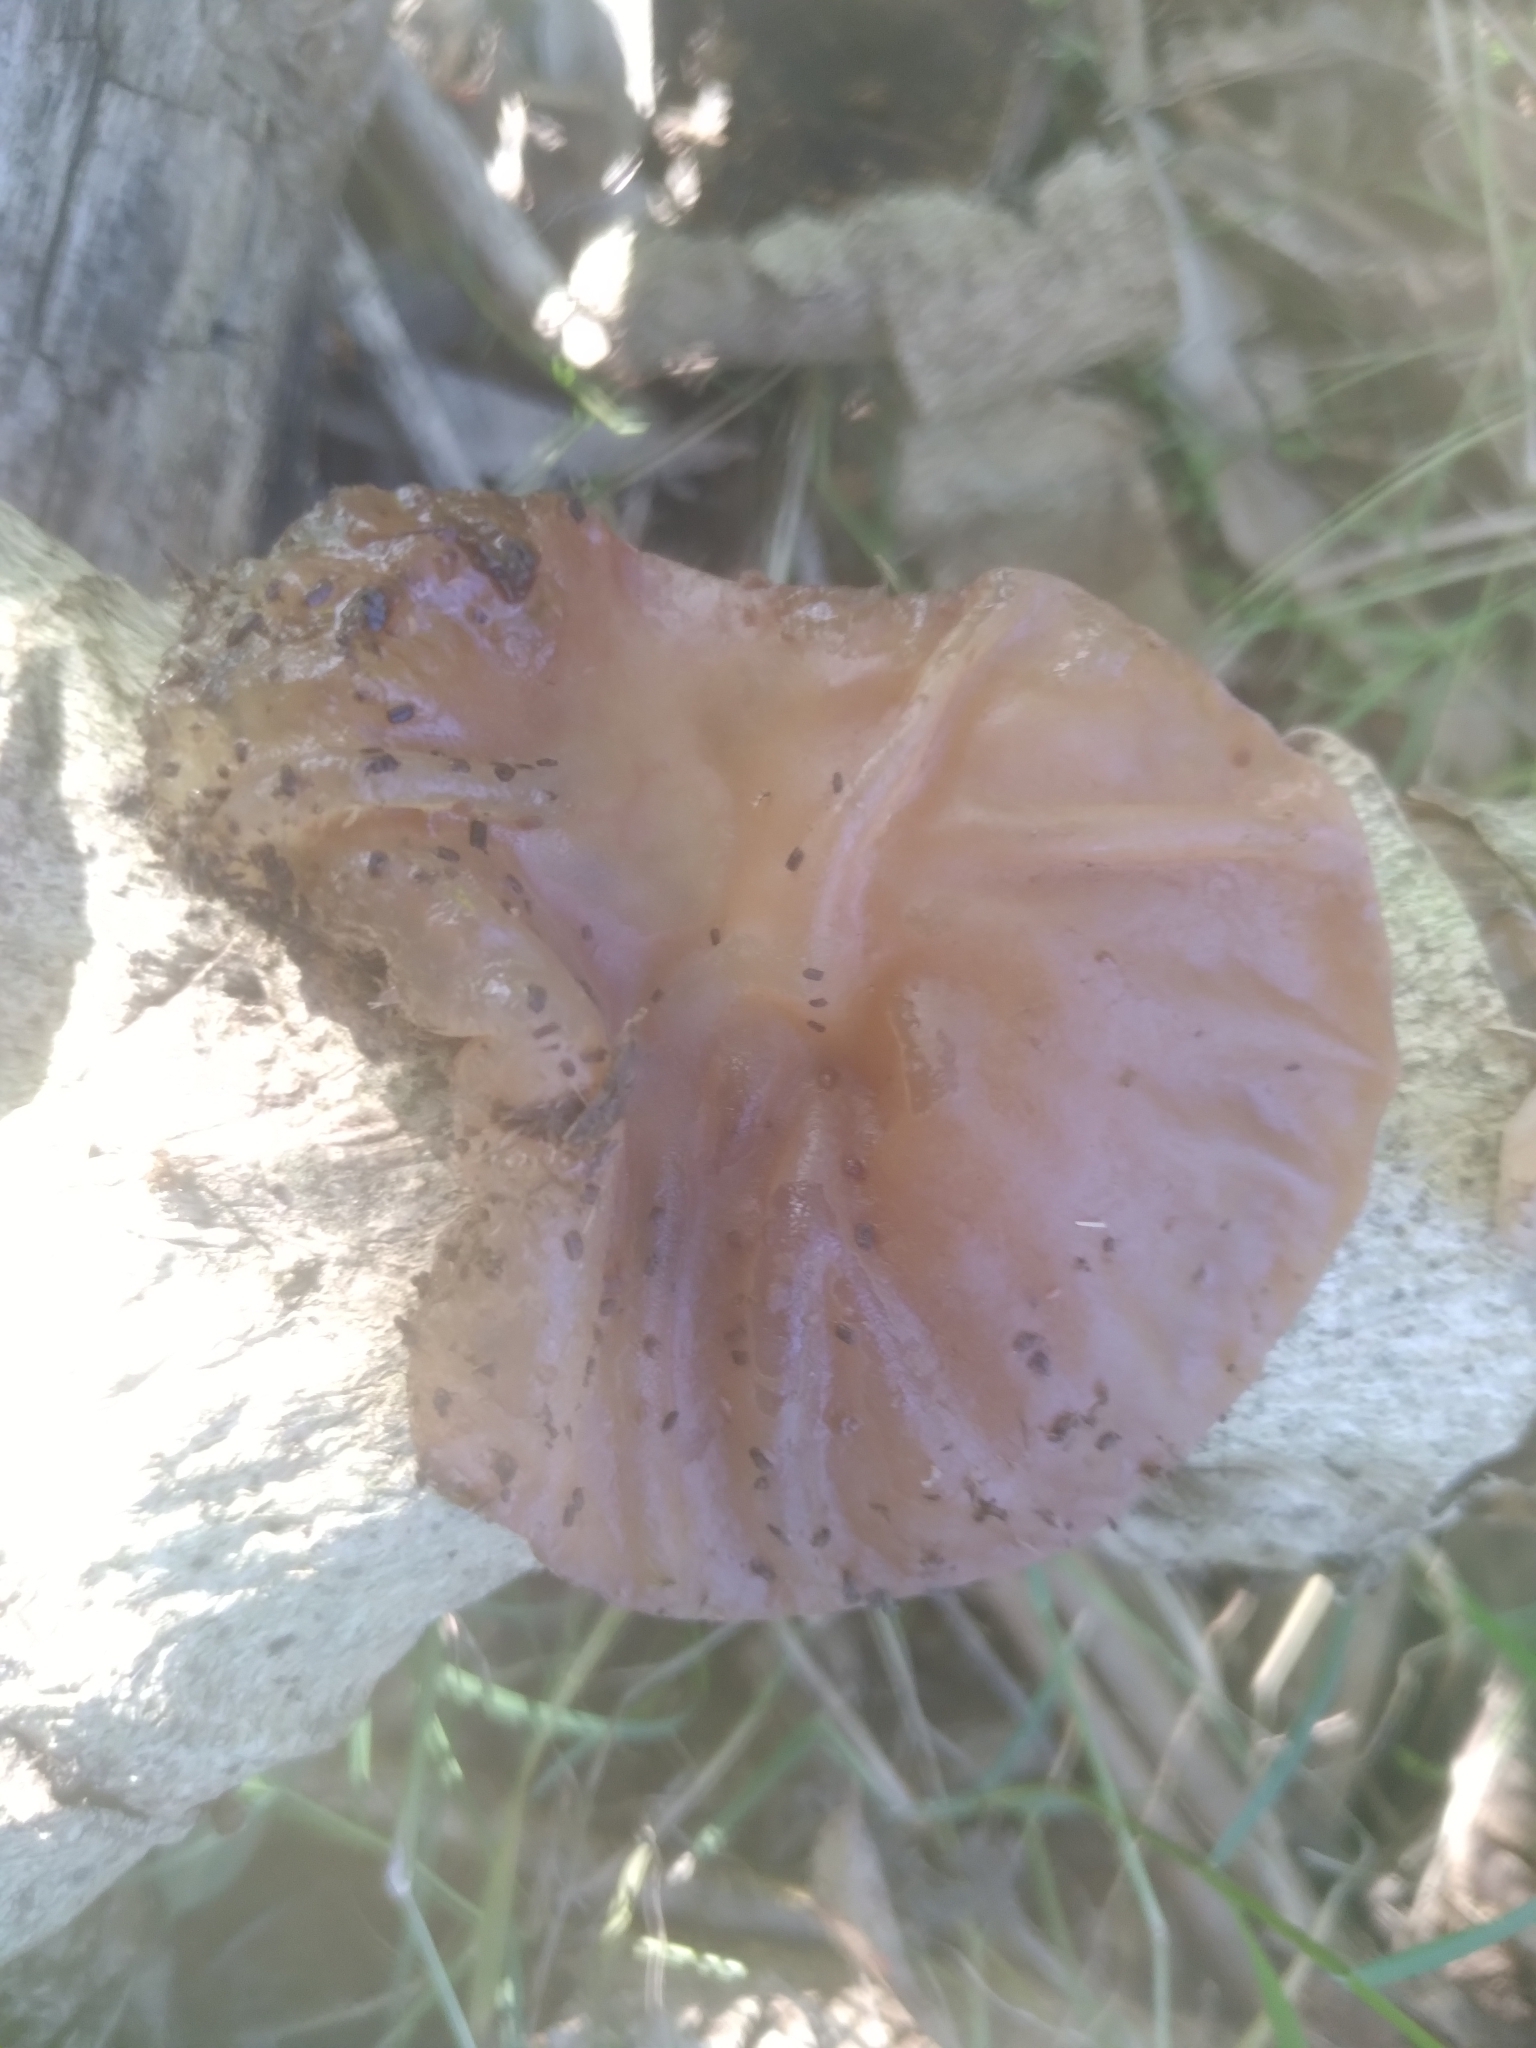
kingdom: Fungi
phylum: Basidiomycota
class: Agaricomycetes
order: Auriculariales
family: Auriculariaceae
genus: Auricularia
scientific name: Auricularia fuscosuccinea
